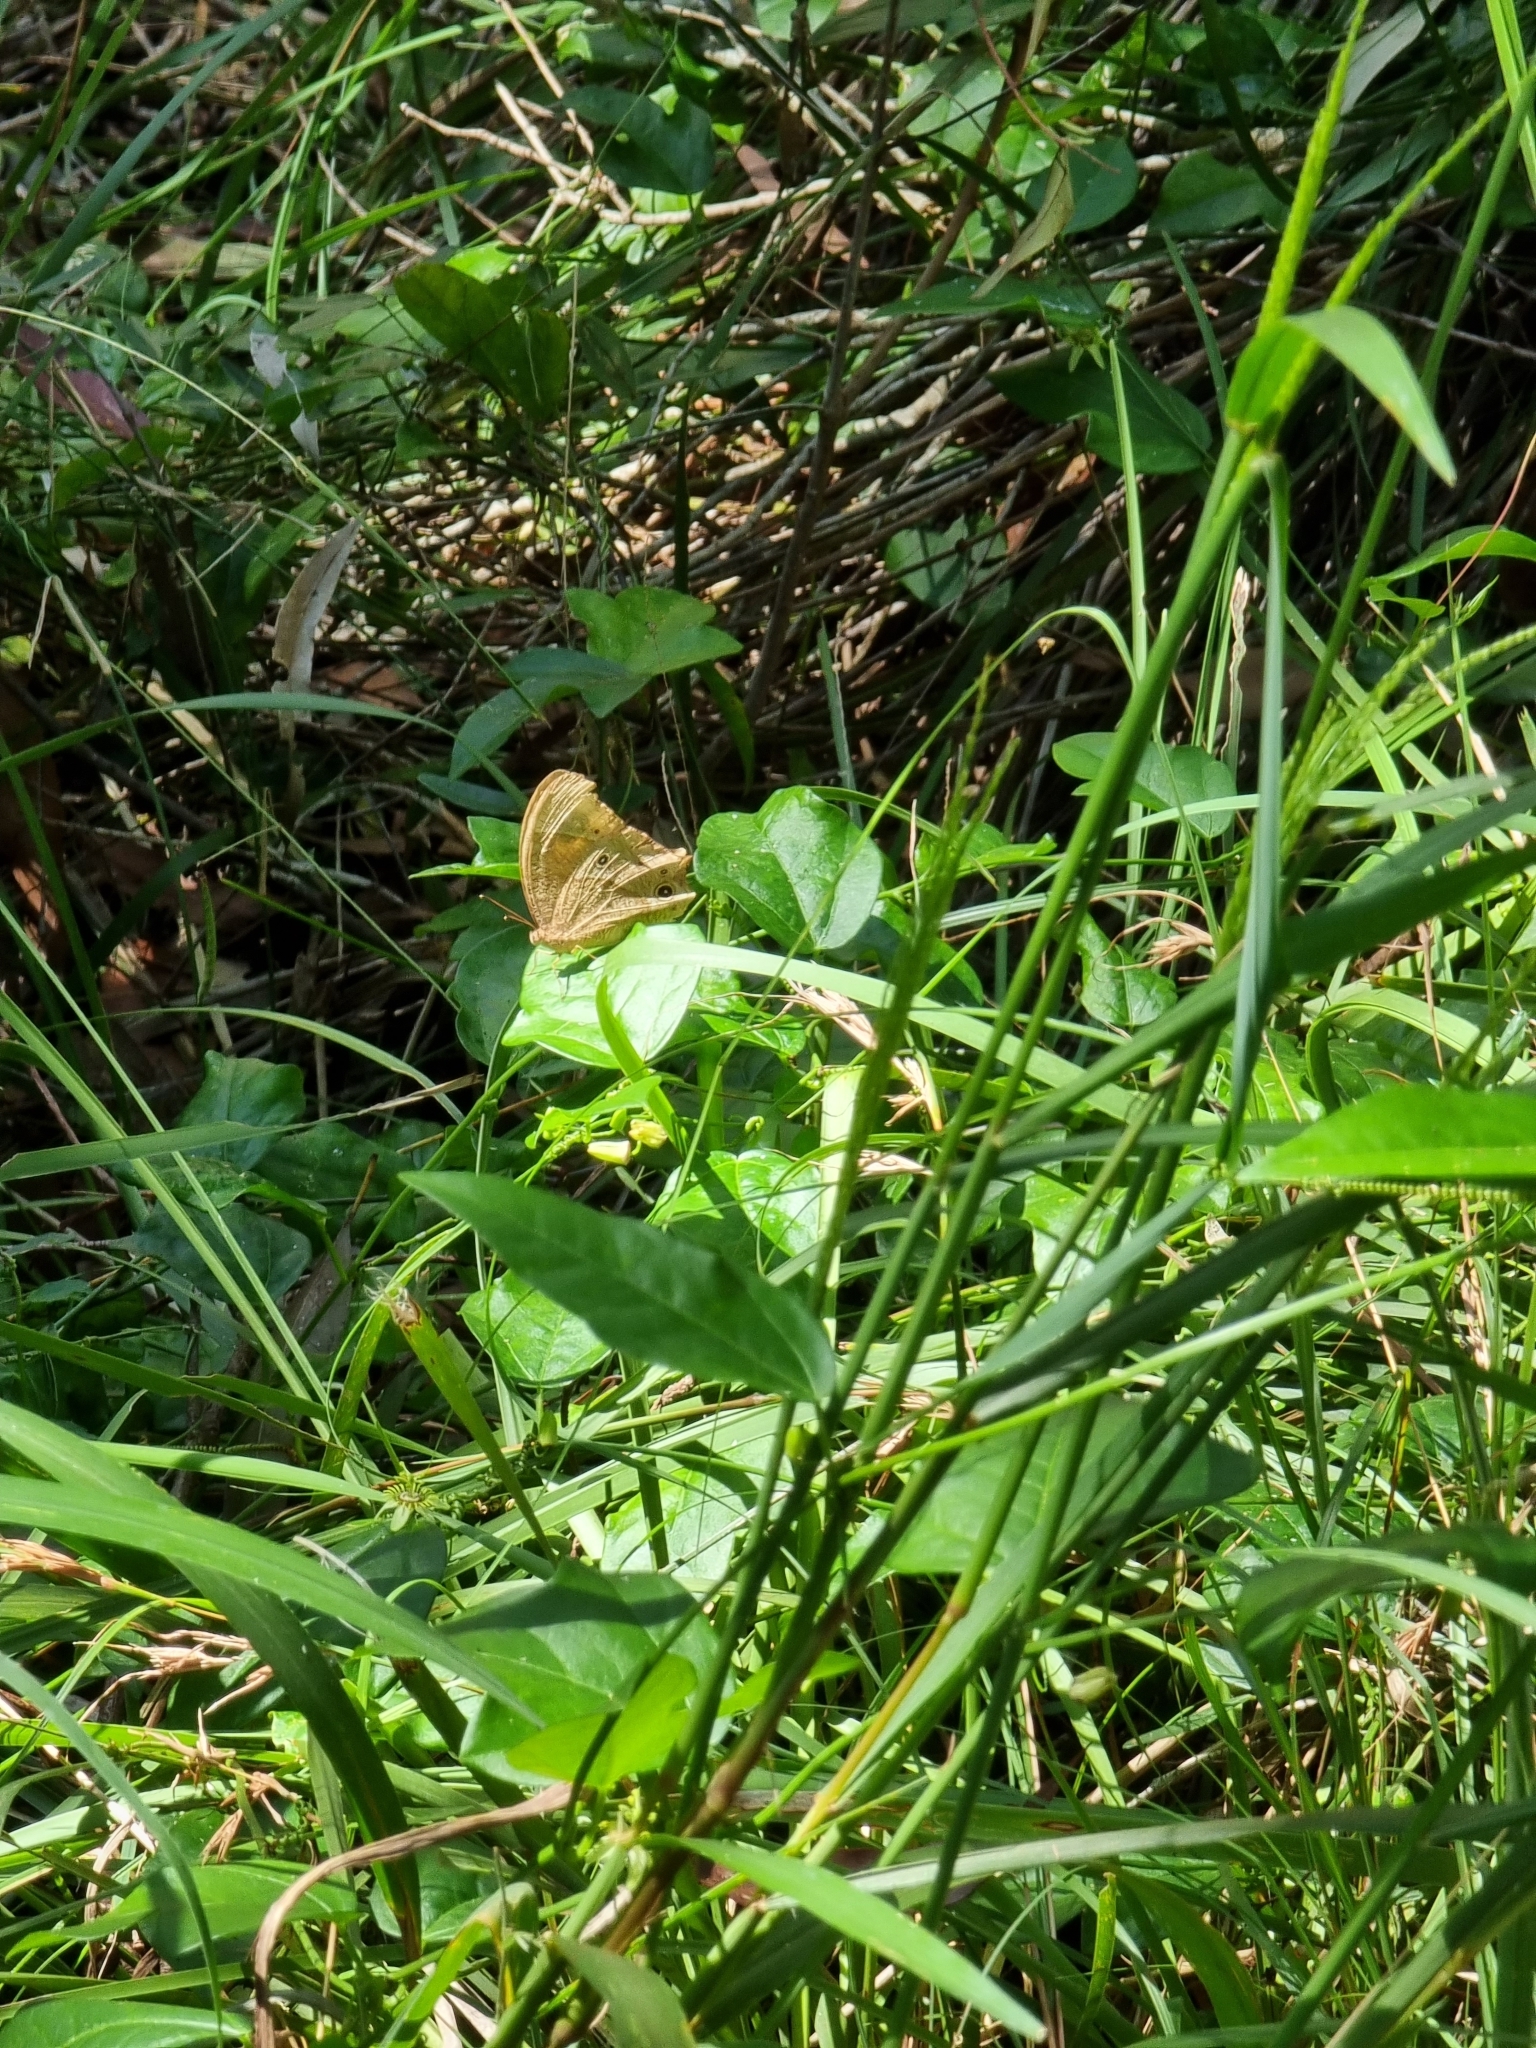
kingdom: Animalia
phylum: Arthropoda
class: Insecta
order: Lepidoptera
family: Nymphalidae
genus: Melanitis
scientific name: Melanitis leda
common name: Twilight brown
